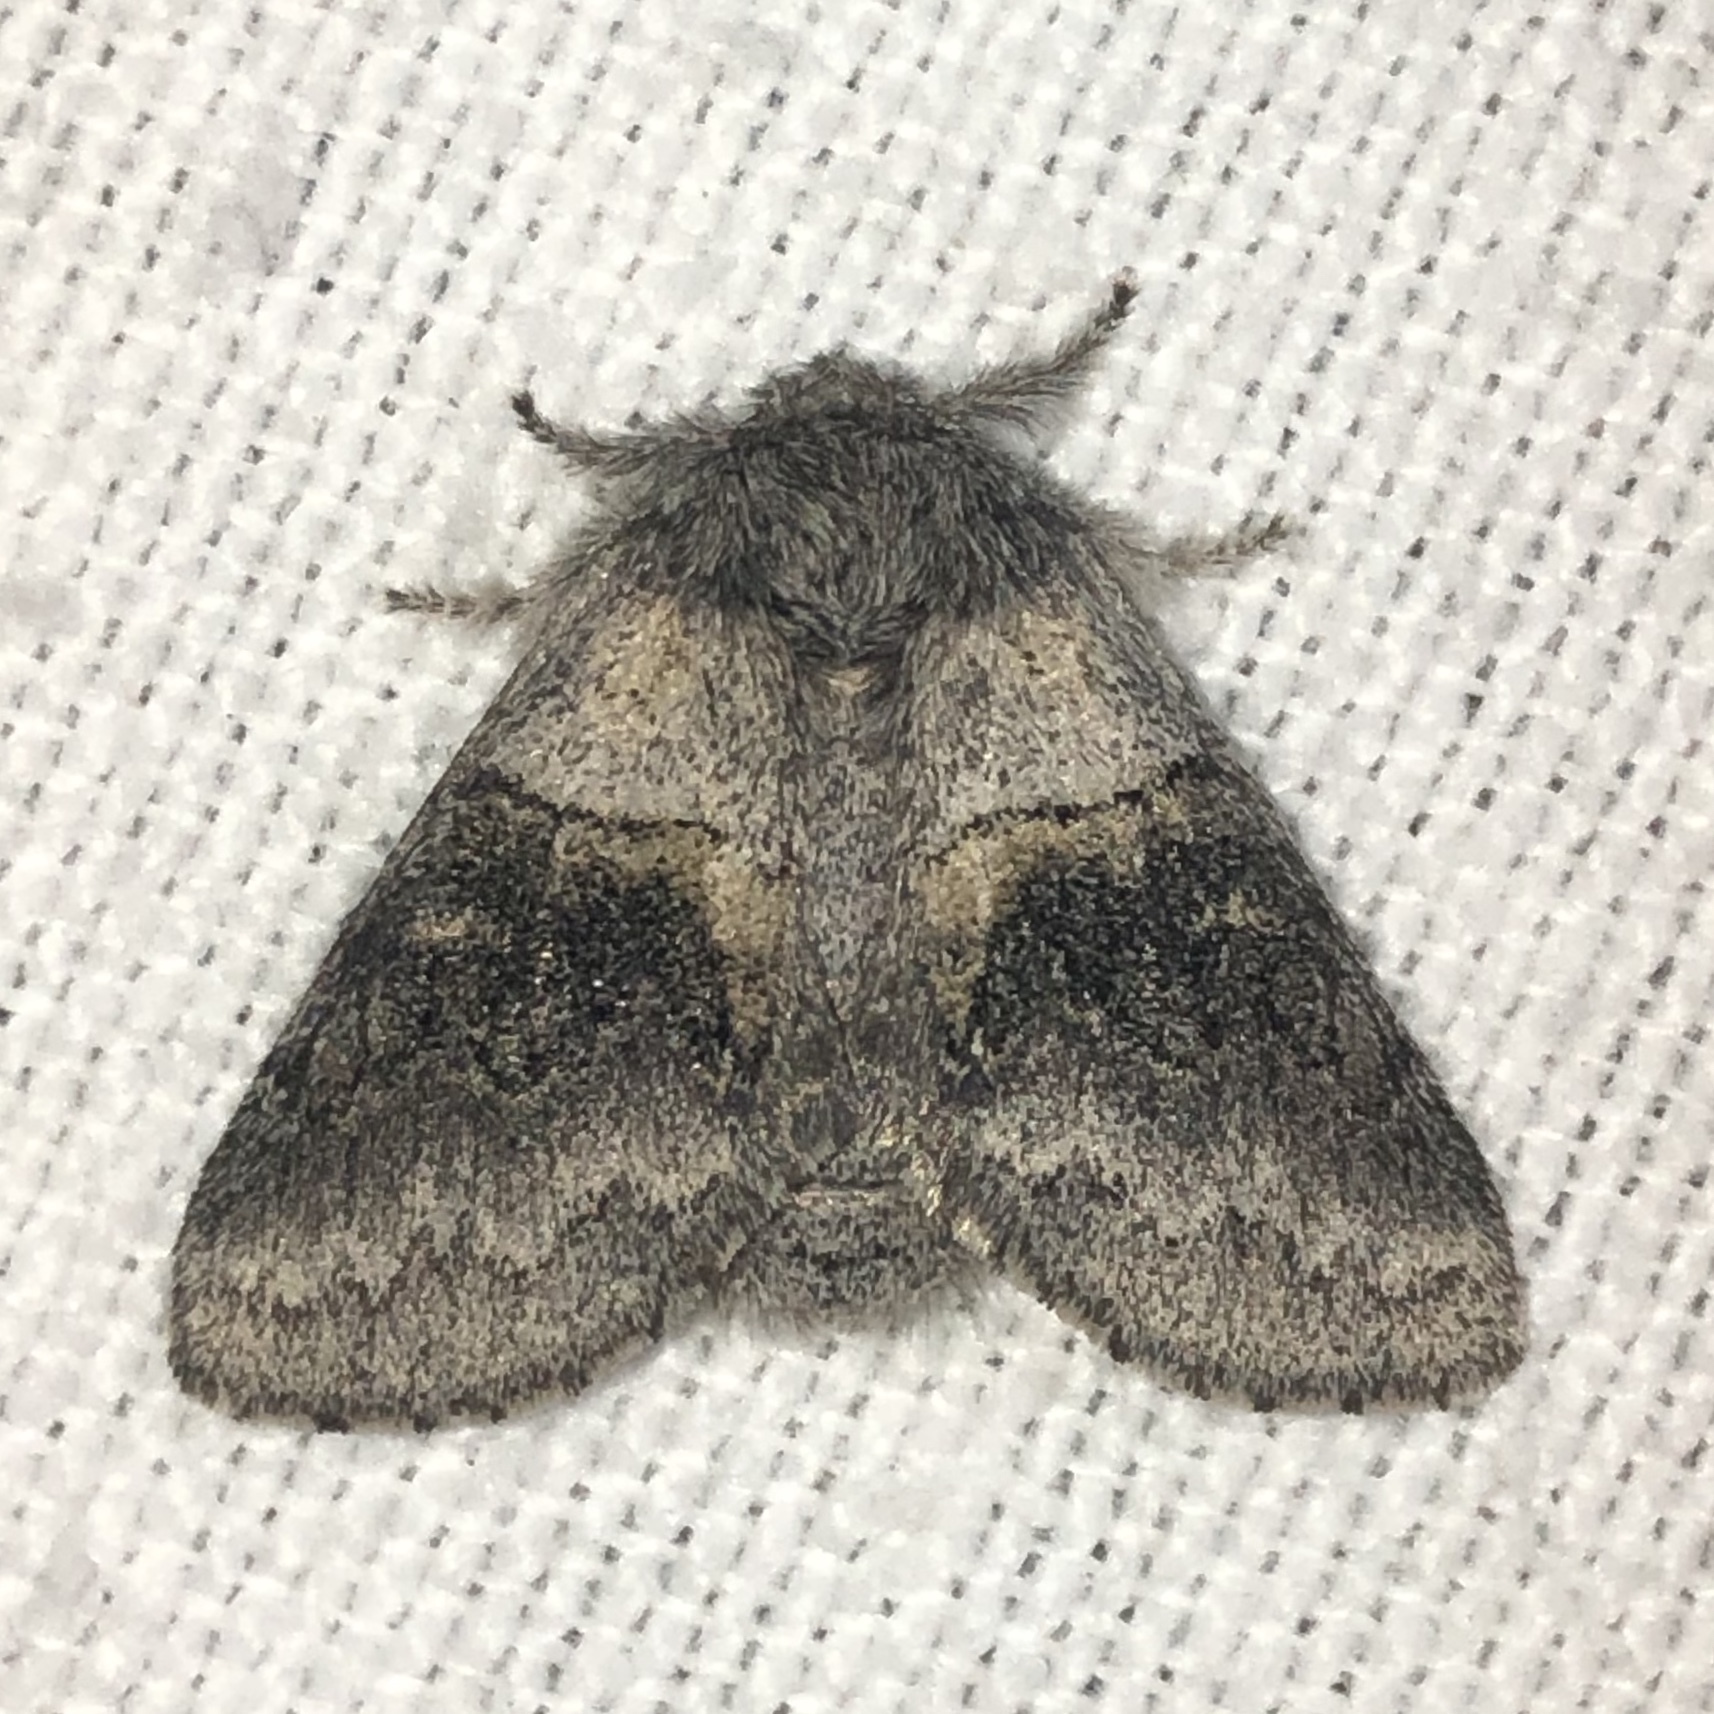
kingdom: Animalia
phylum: Arthropoda
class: Insecta
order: Lepidoptera
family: Notodontidae
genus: Gluphisia
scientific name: Gluphisia septentrionis
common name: Common gluphisia
